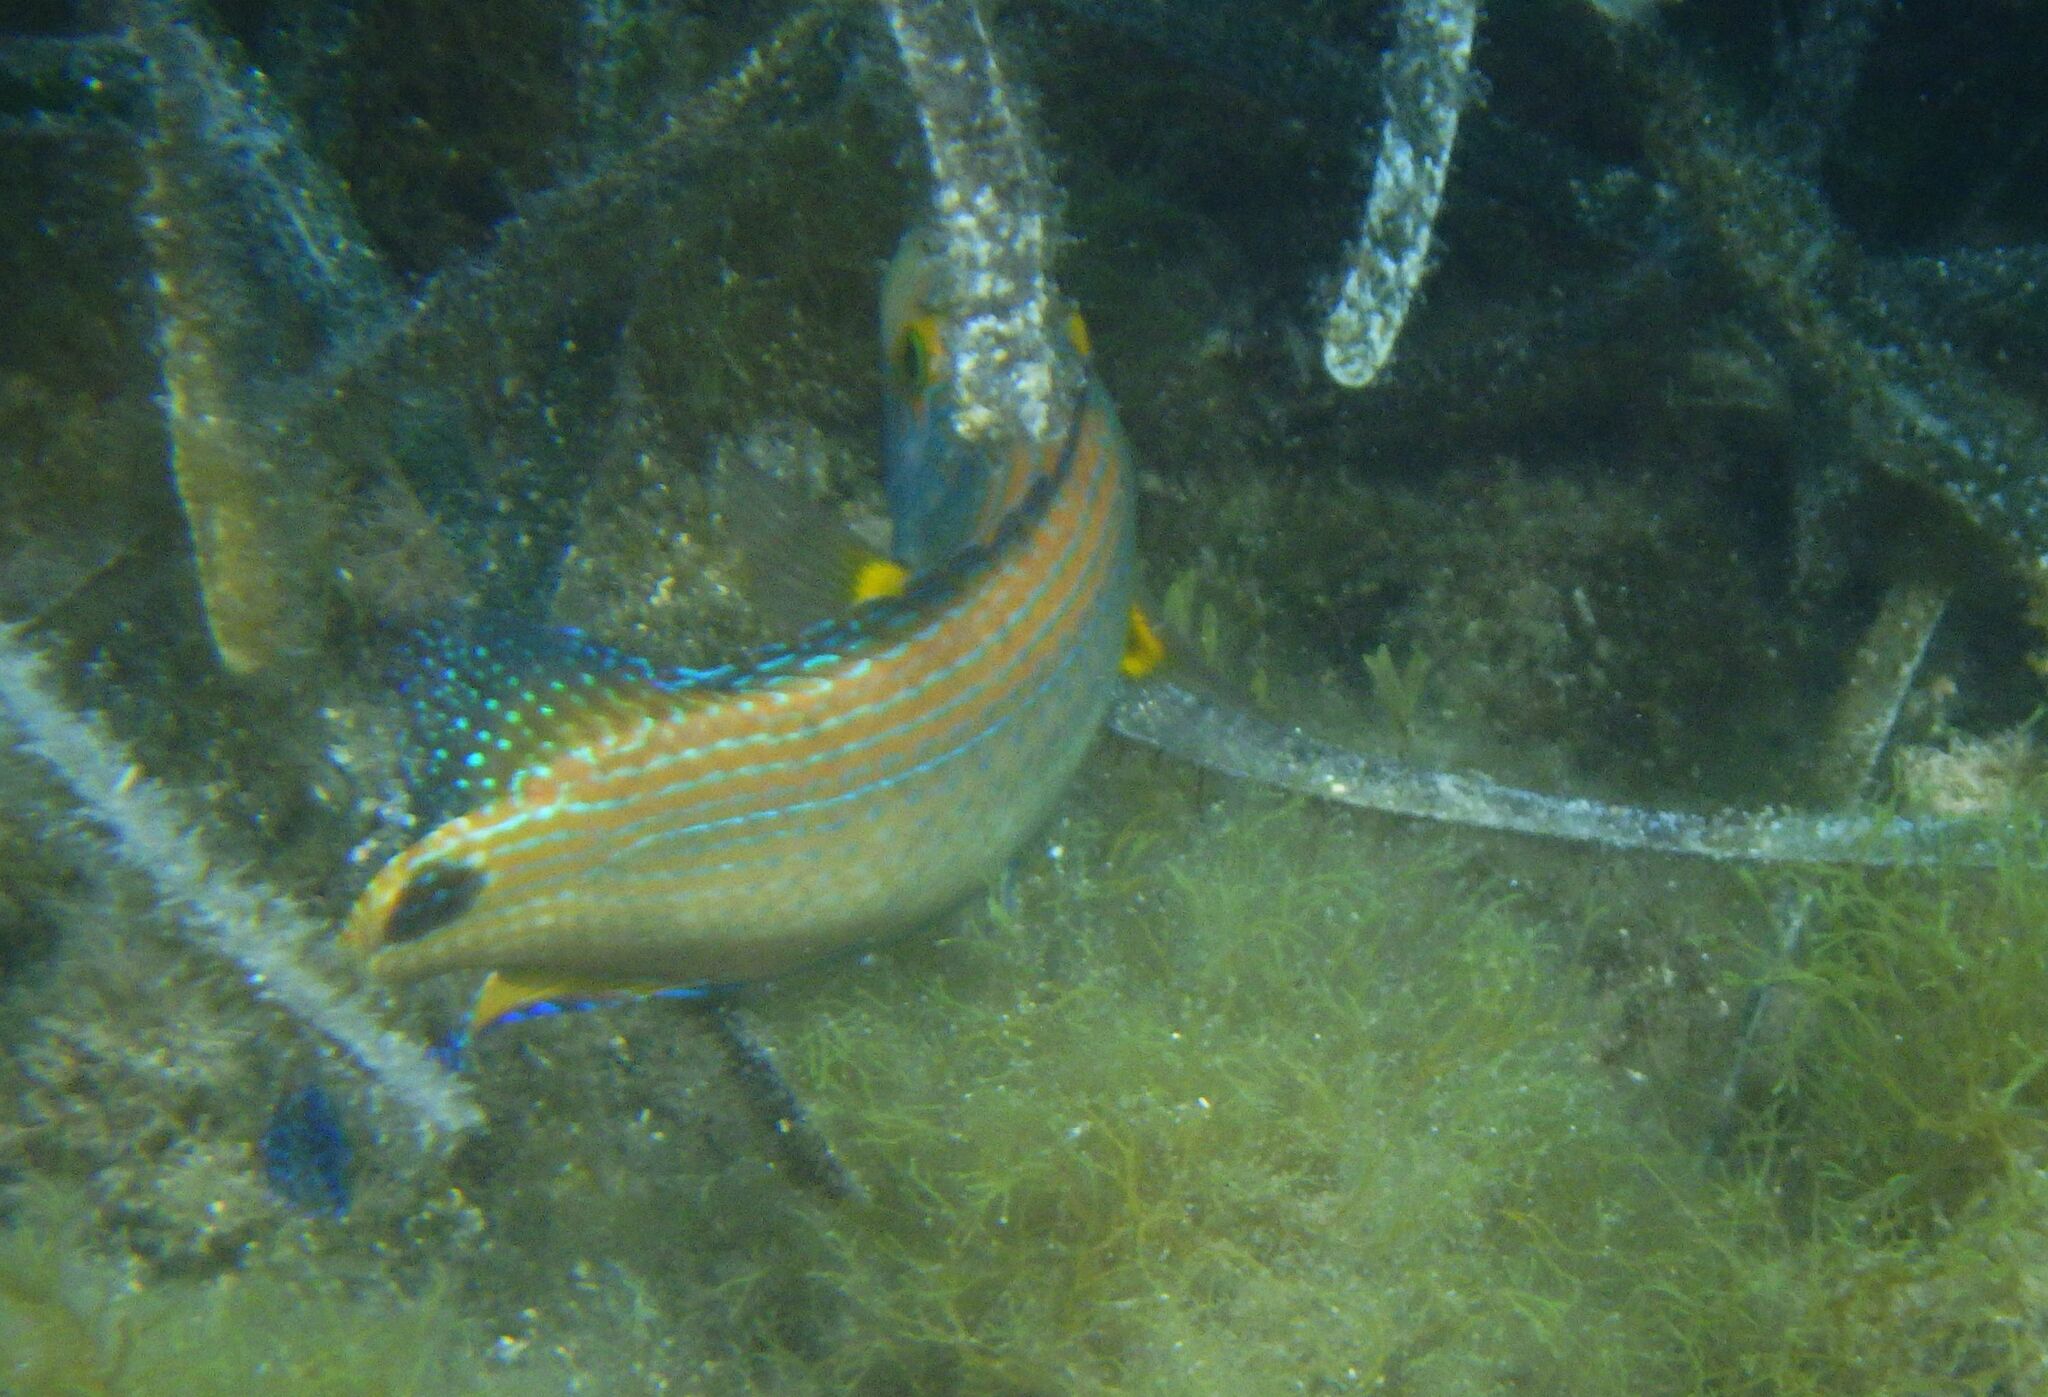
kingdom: Animalia
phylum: Chordata
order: Perciformes
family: Labridae
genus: Symphodus
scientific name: Symphodus mediterraneus
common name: Axillary wrasse
